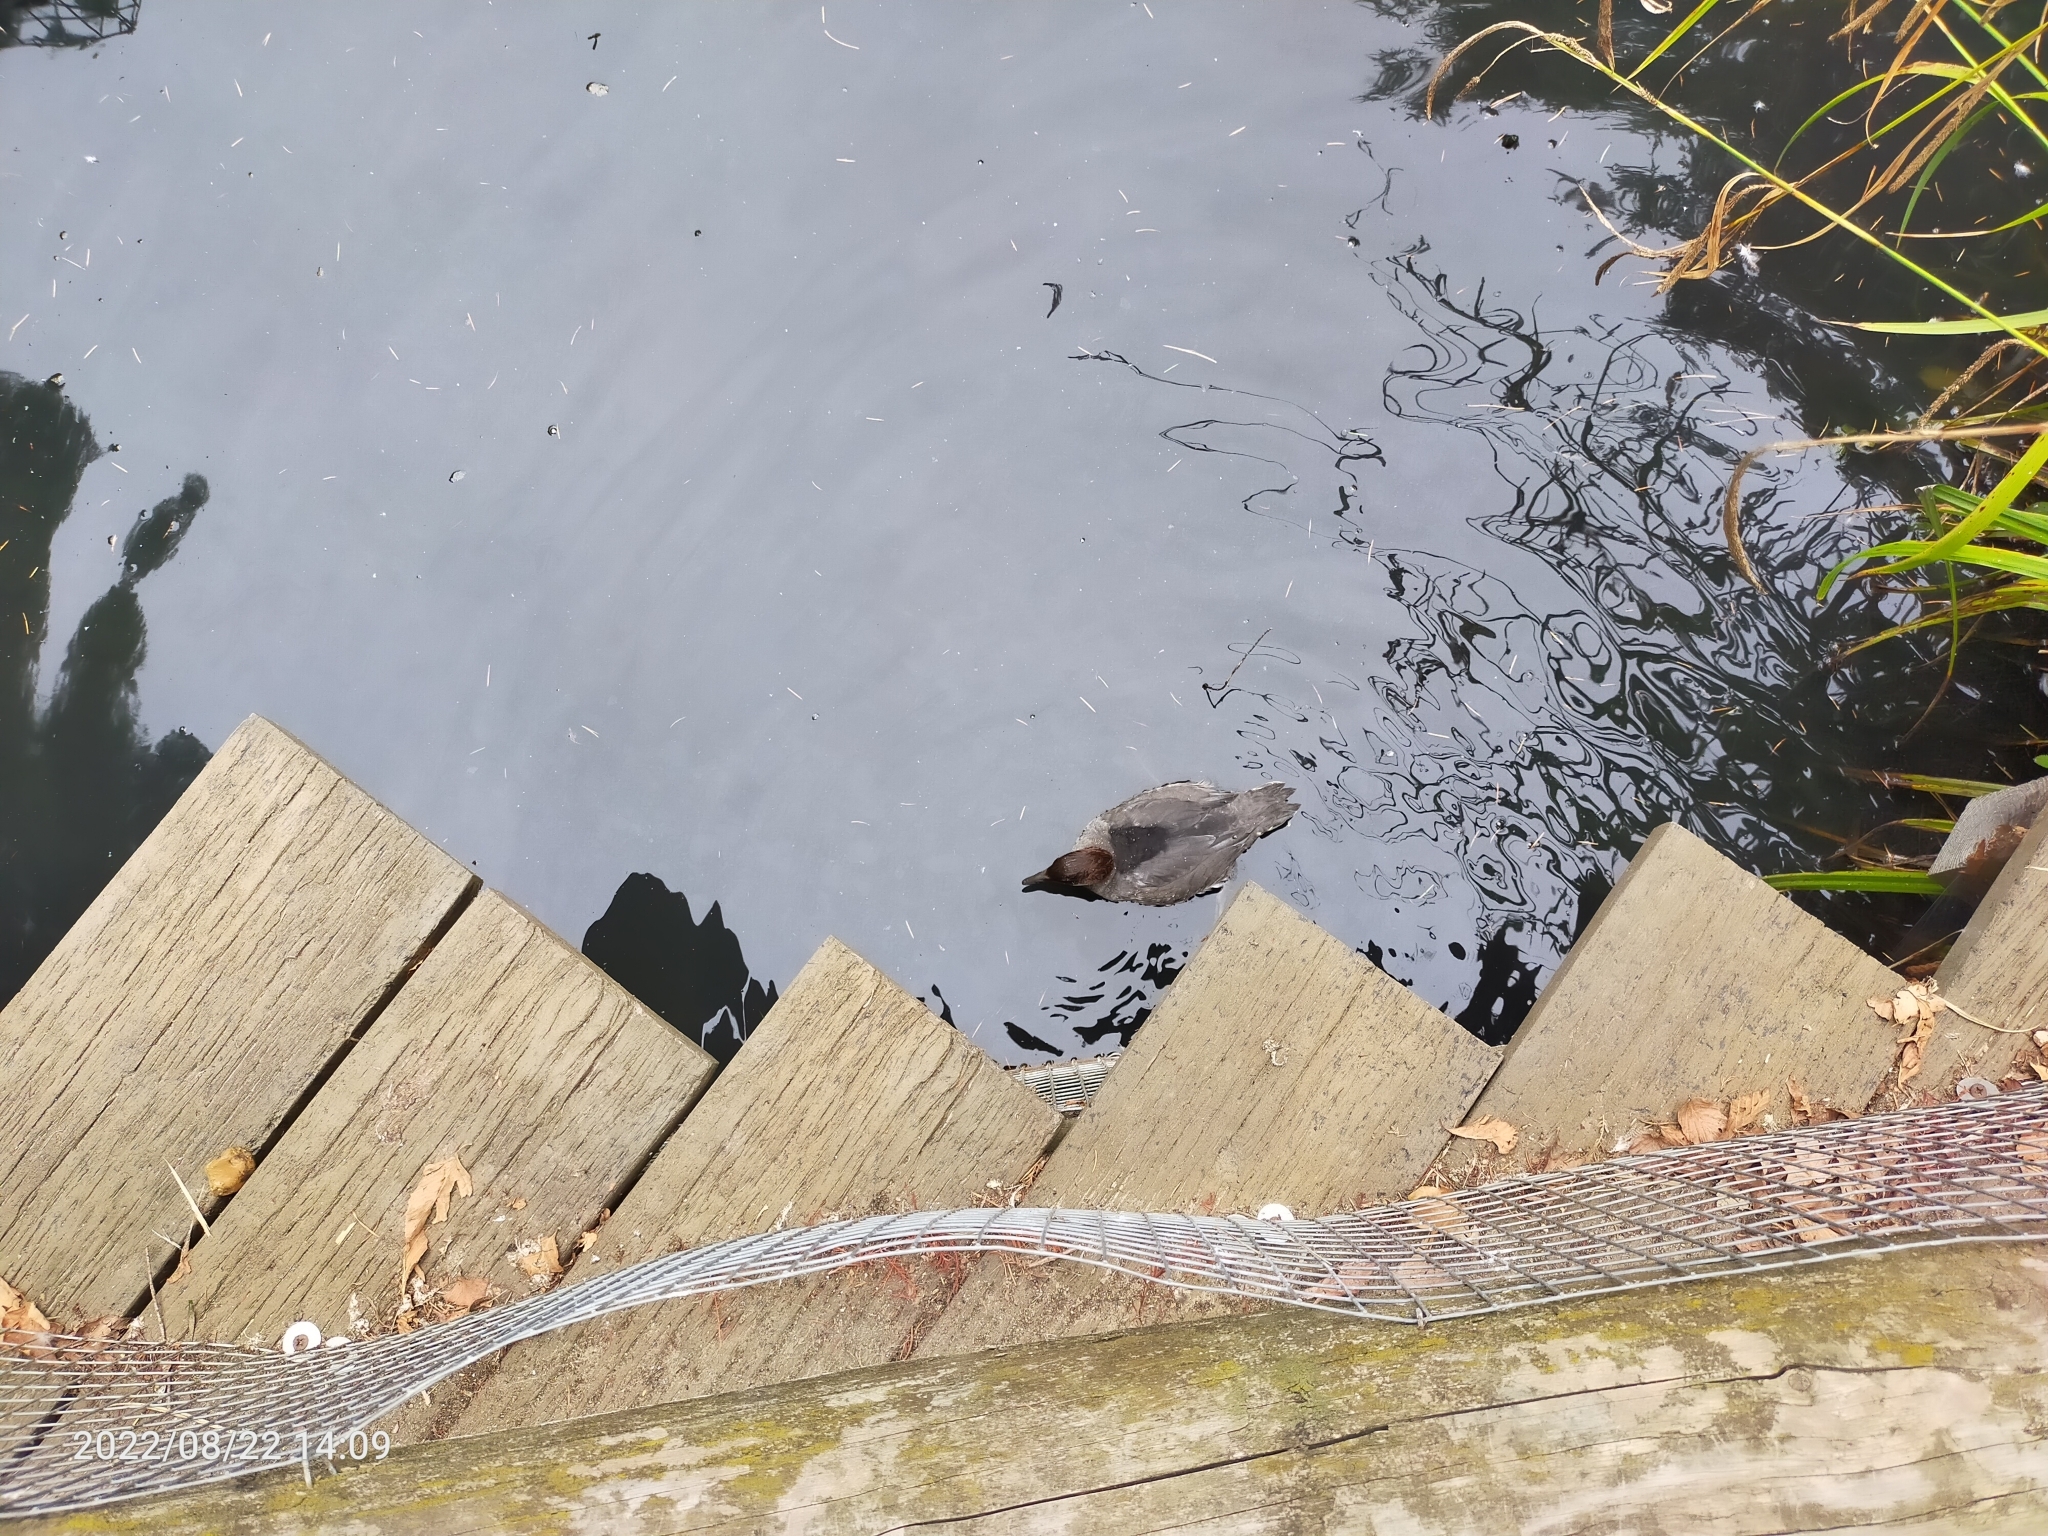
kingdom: Animalia
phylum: Chordata
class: Aves
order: Anseriformes
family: Anatidae
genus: Bucephala
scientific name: Bucephala clangula
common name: Common goldeneye
